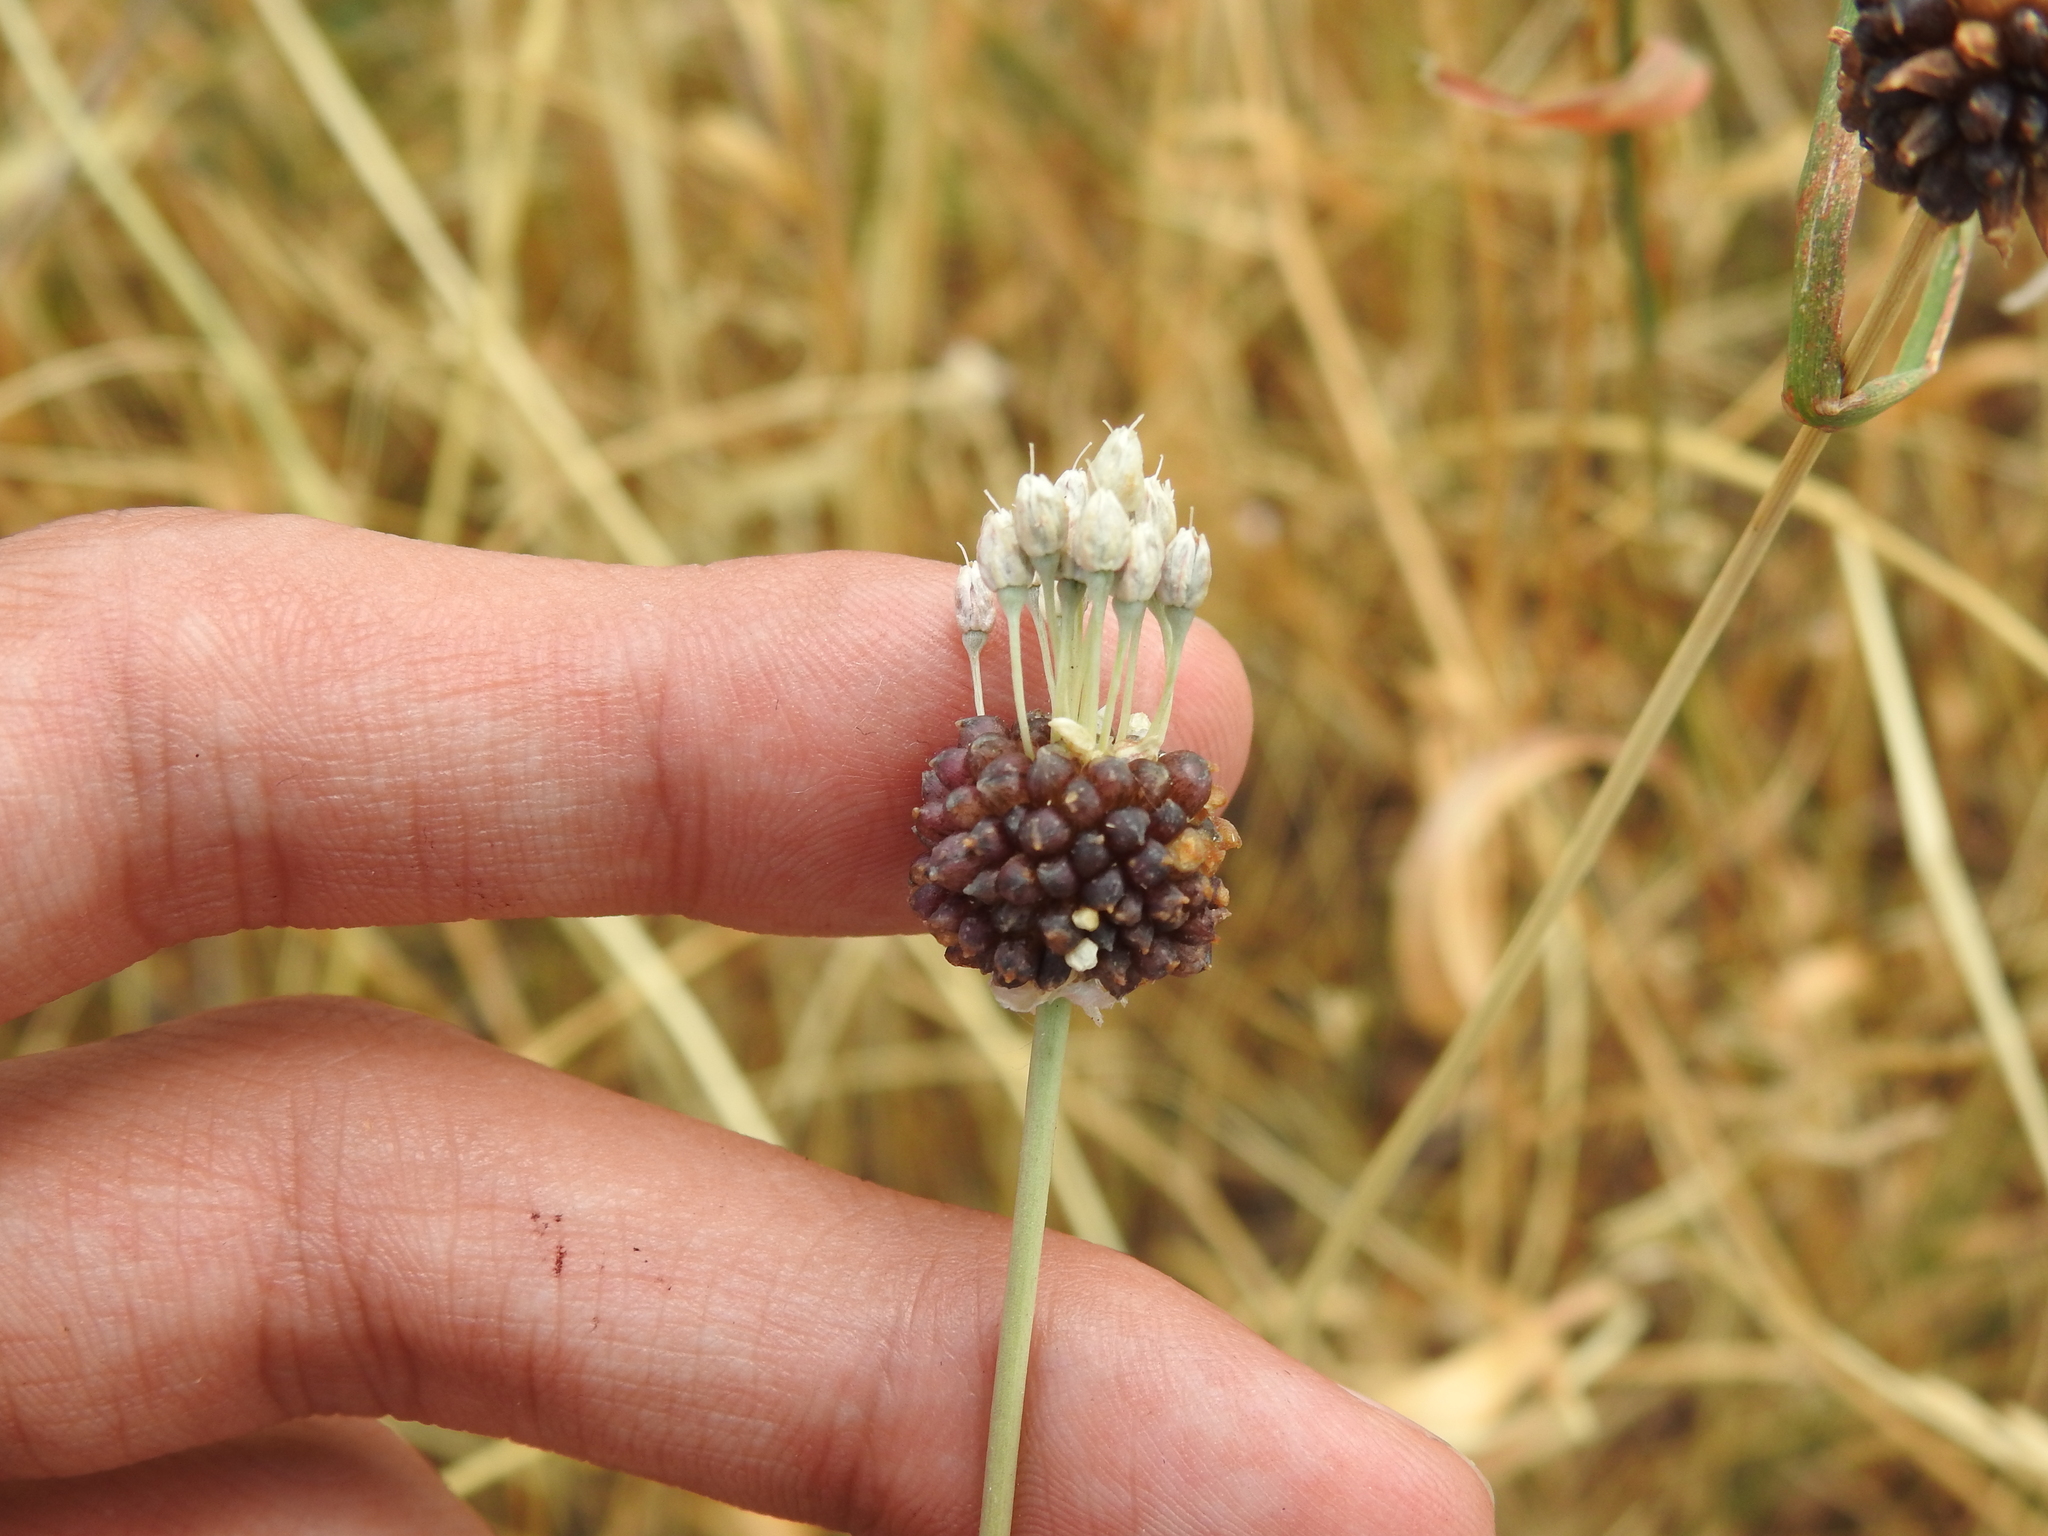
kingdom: Plantae
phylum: Tracheophyta
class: Liliopsida
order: Asparagales
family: Amaryllidaceae
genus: Allium
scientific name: Allium vineale
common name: Crow garlic
